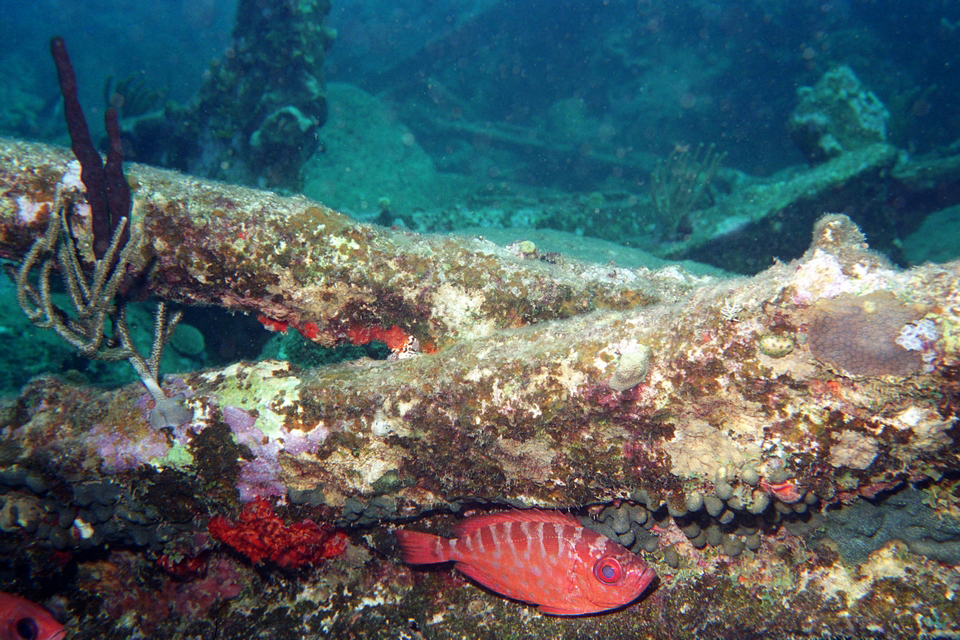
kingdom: Animalia
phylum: Chordata
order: Perciformes
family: Priacanthidae
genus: Heteropriacanthus
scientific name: Heteropriacanthus cruentatus
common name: Glasseye
